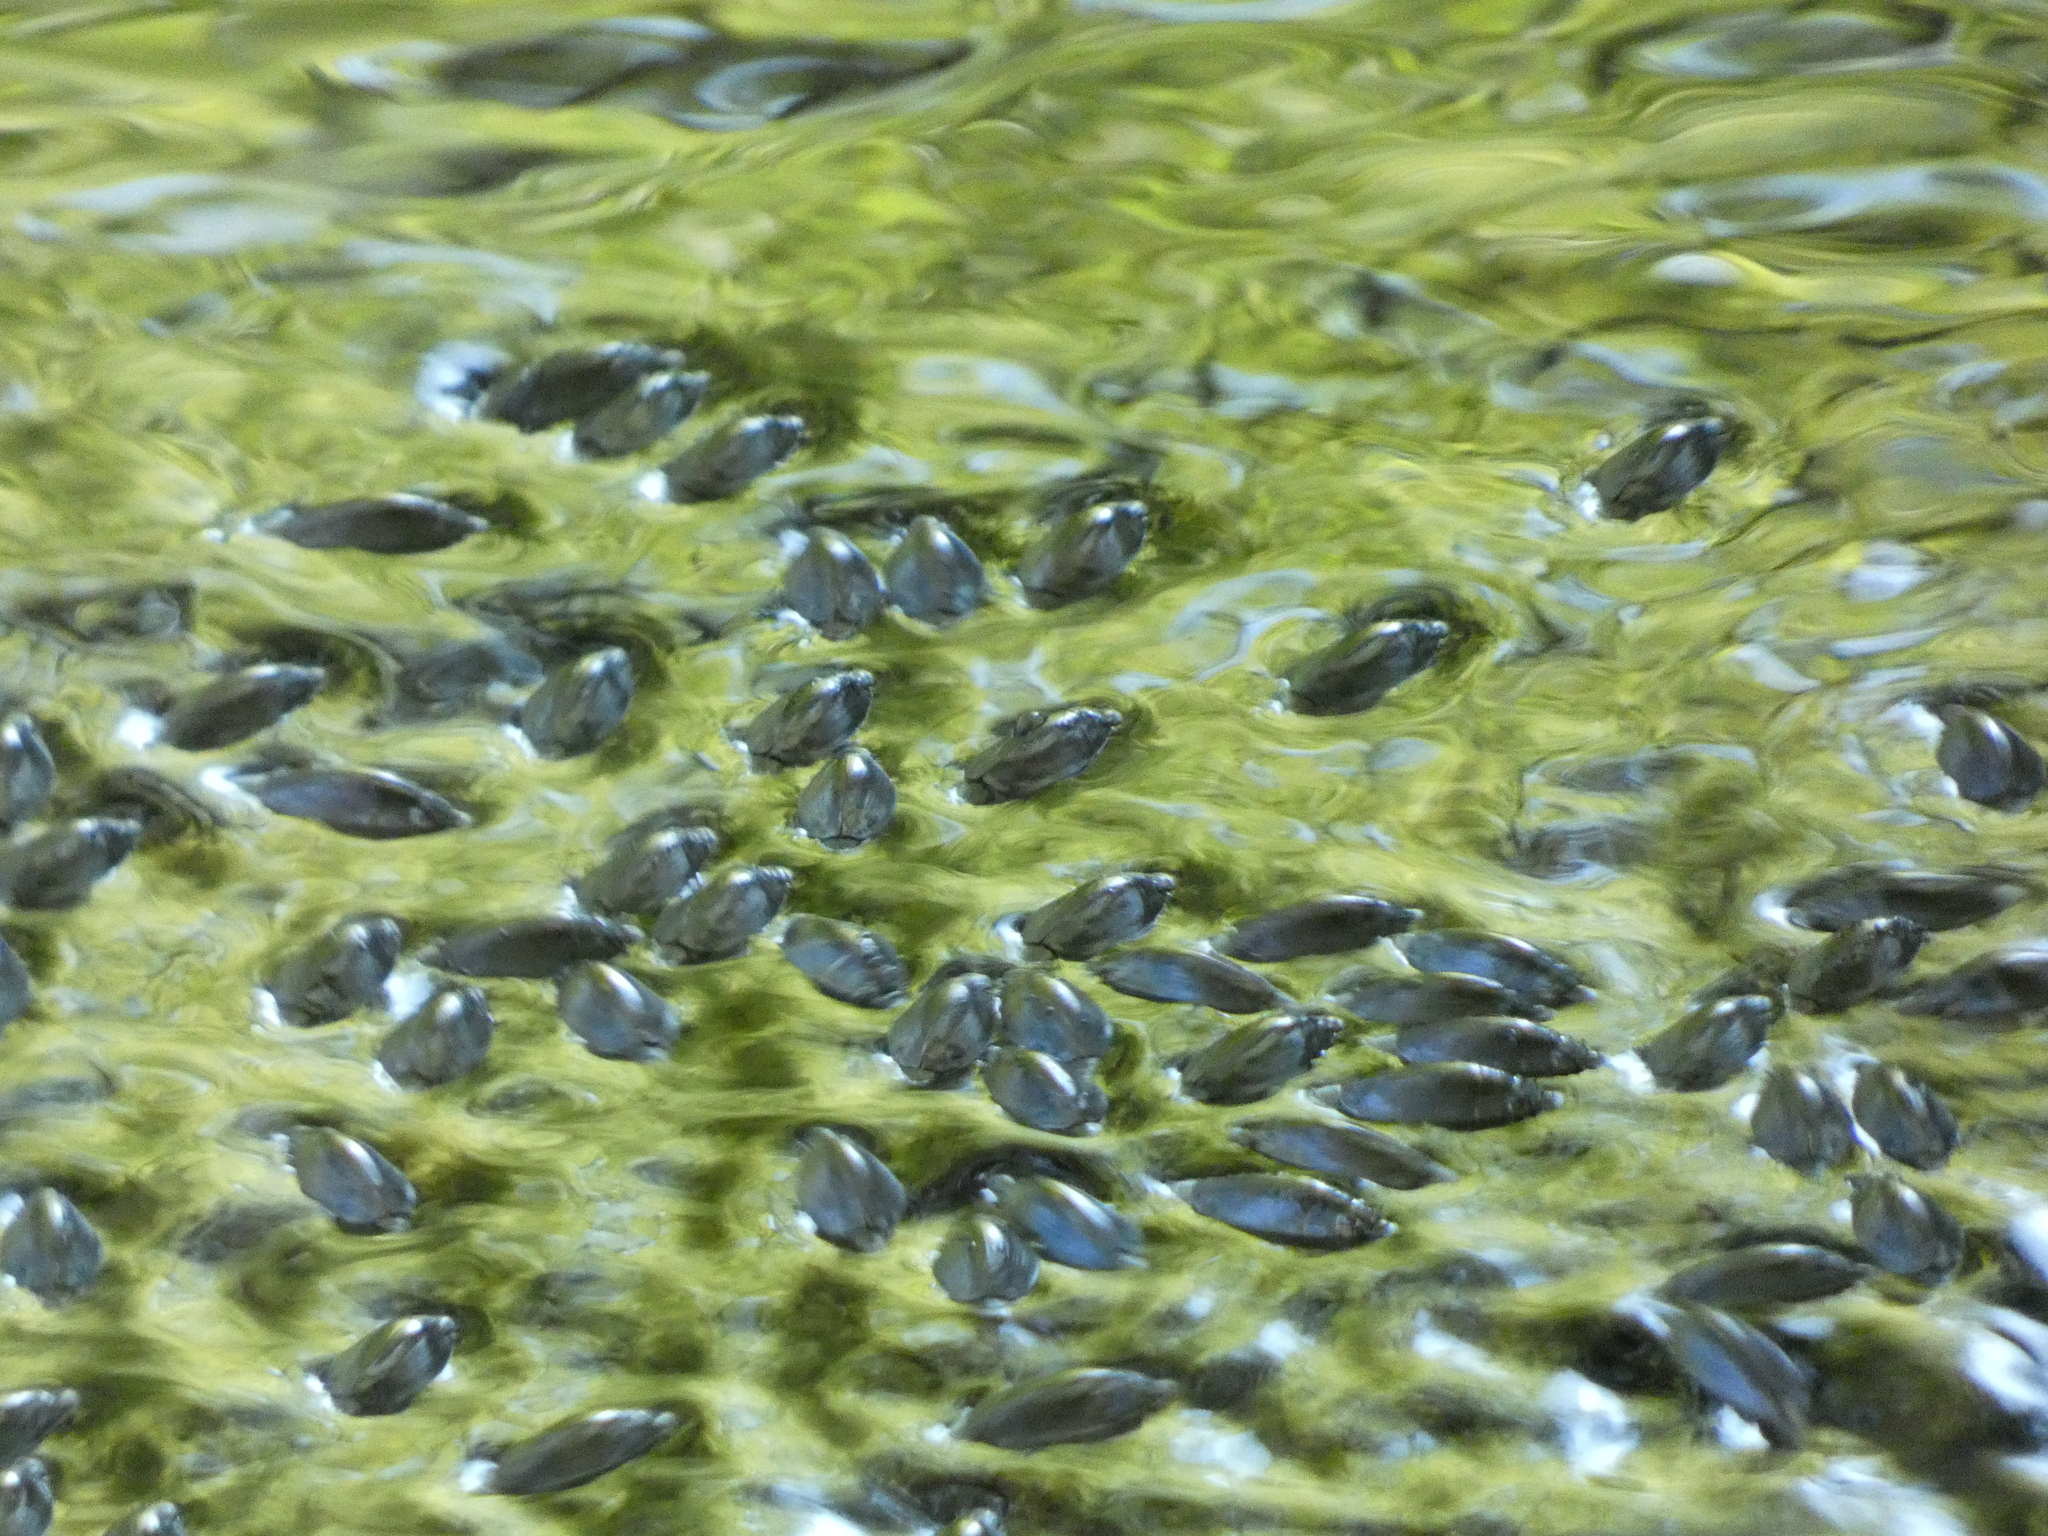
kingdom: Animalia
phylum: Arthropoda
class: Insecta
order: Coleoptera
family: Gyrinidae
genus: Dineutus
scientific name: Dineutus
